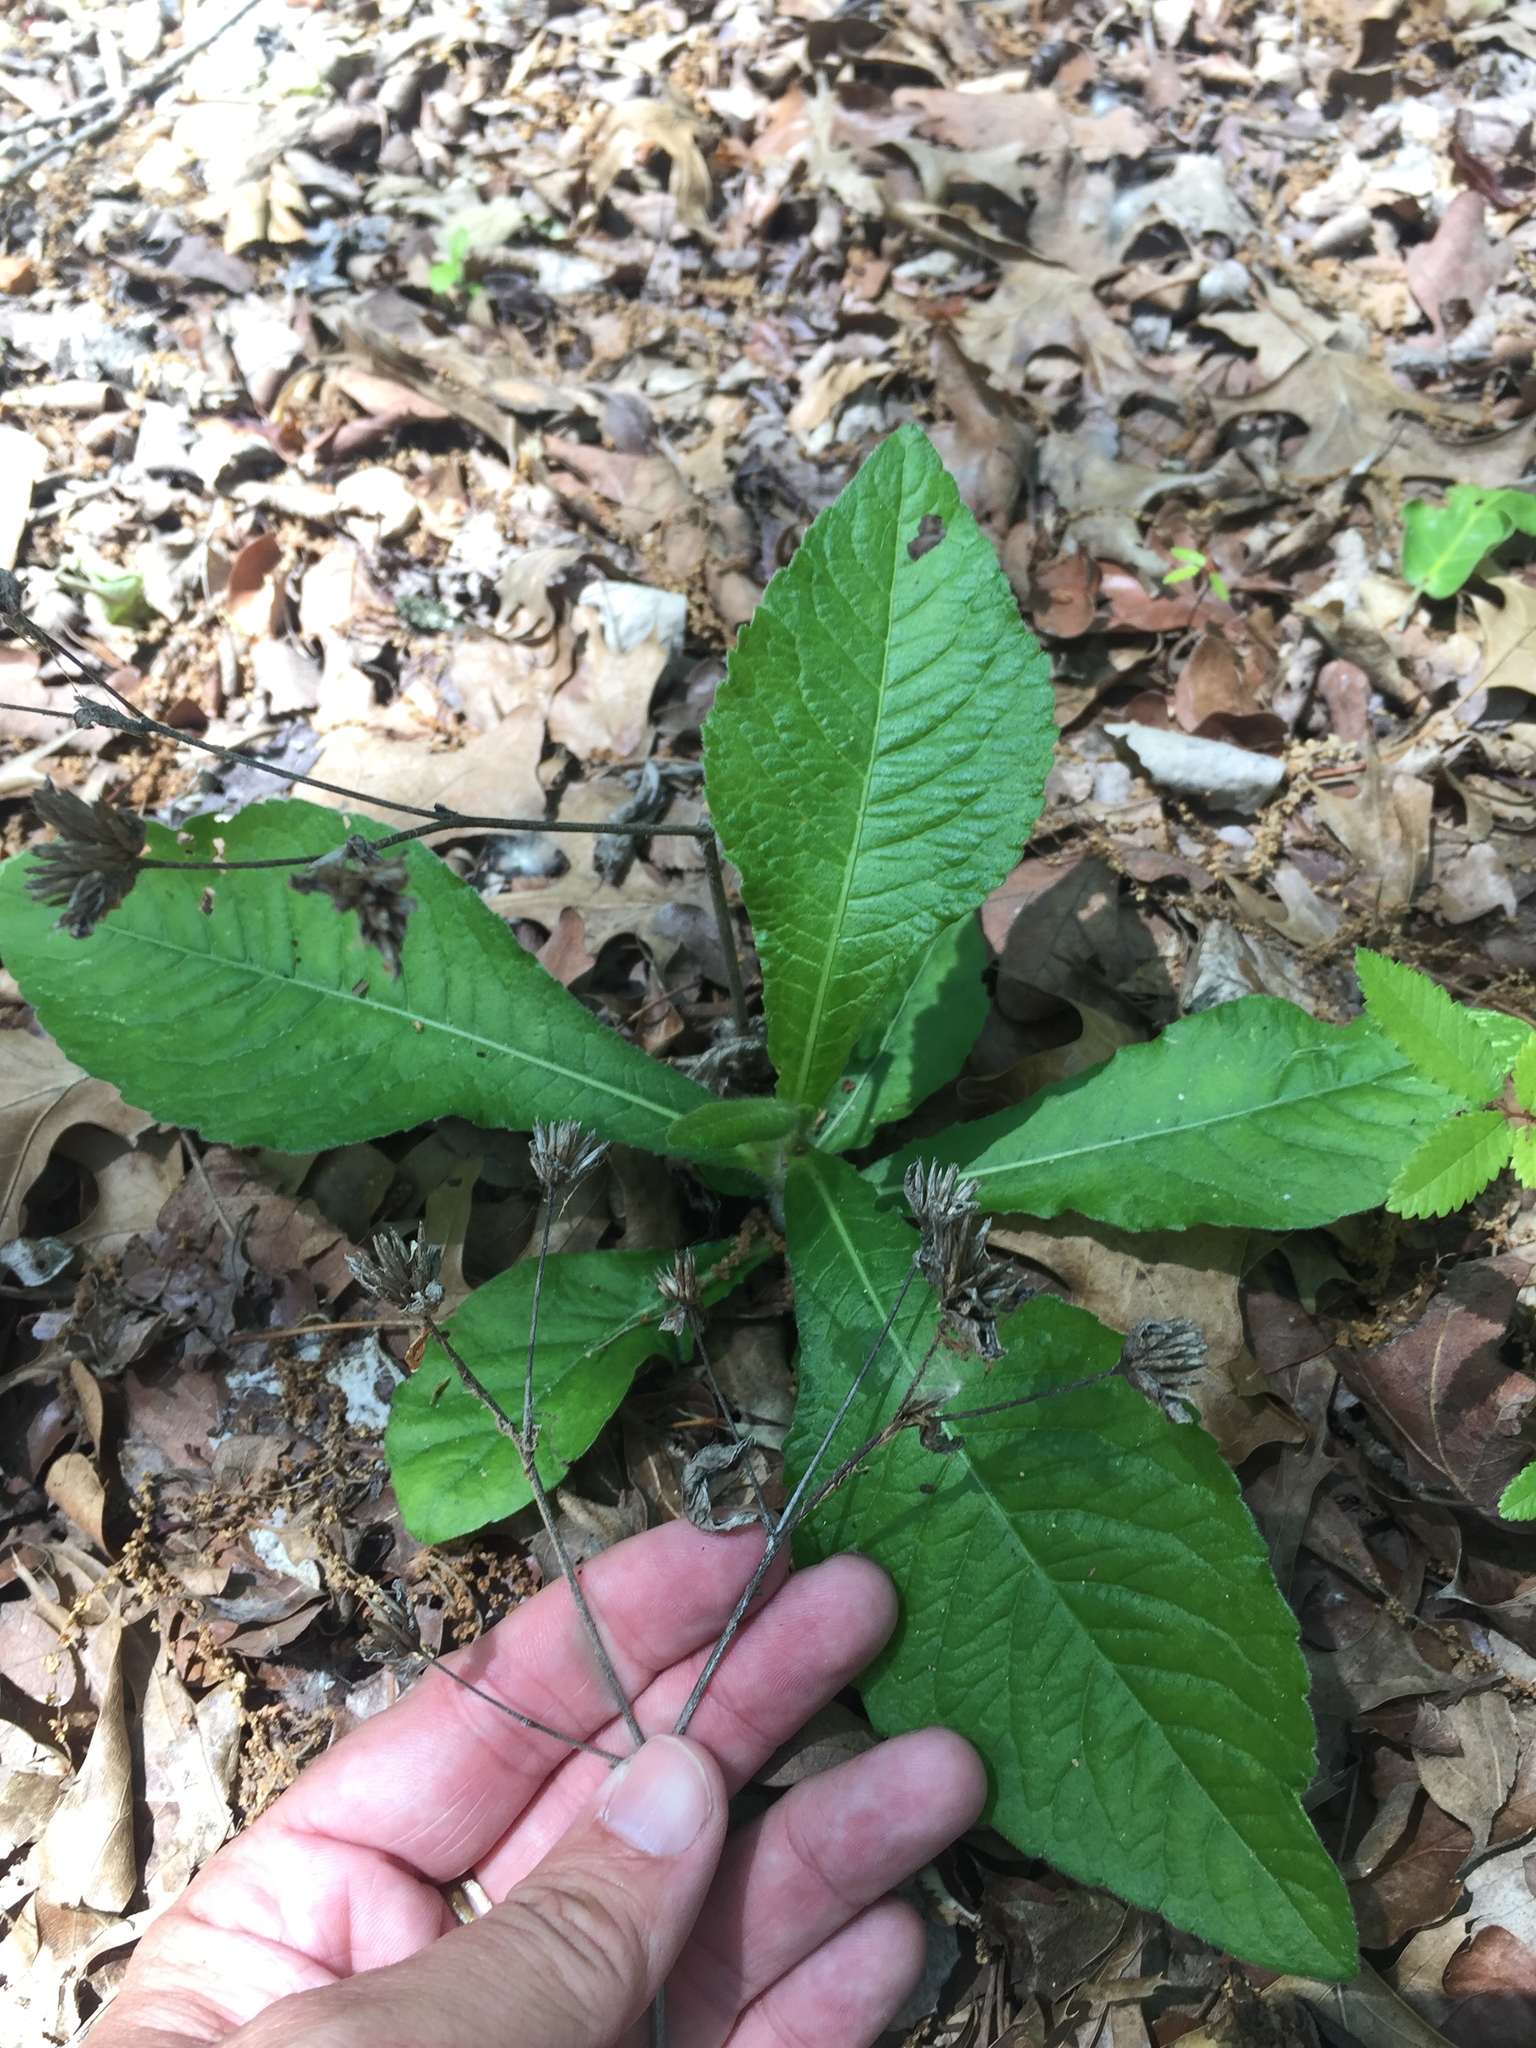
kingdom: Plantae
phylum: Tracheophyta
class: Magnoliopsida
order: Asterales
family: Asteraceae
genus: Elephantopus
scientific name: Elephantopus carolinianus
